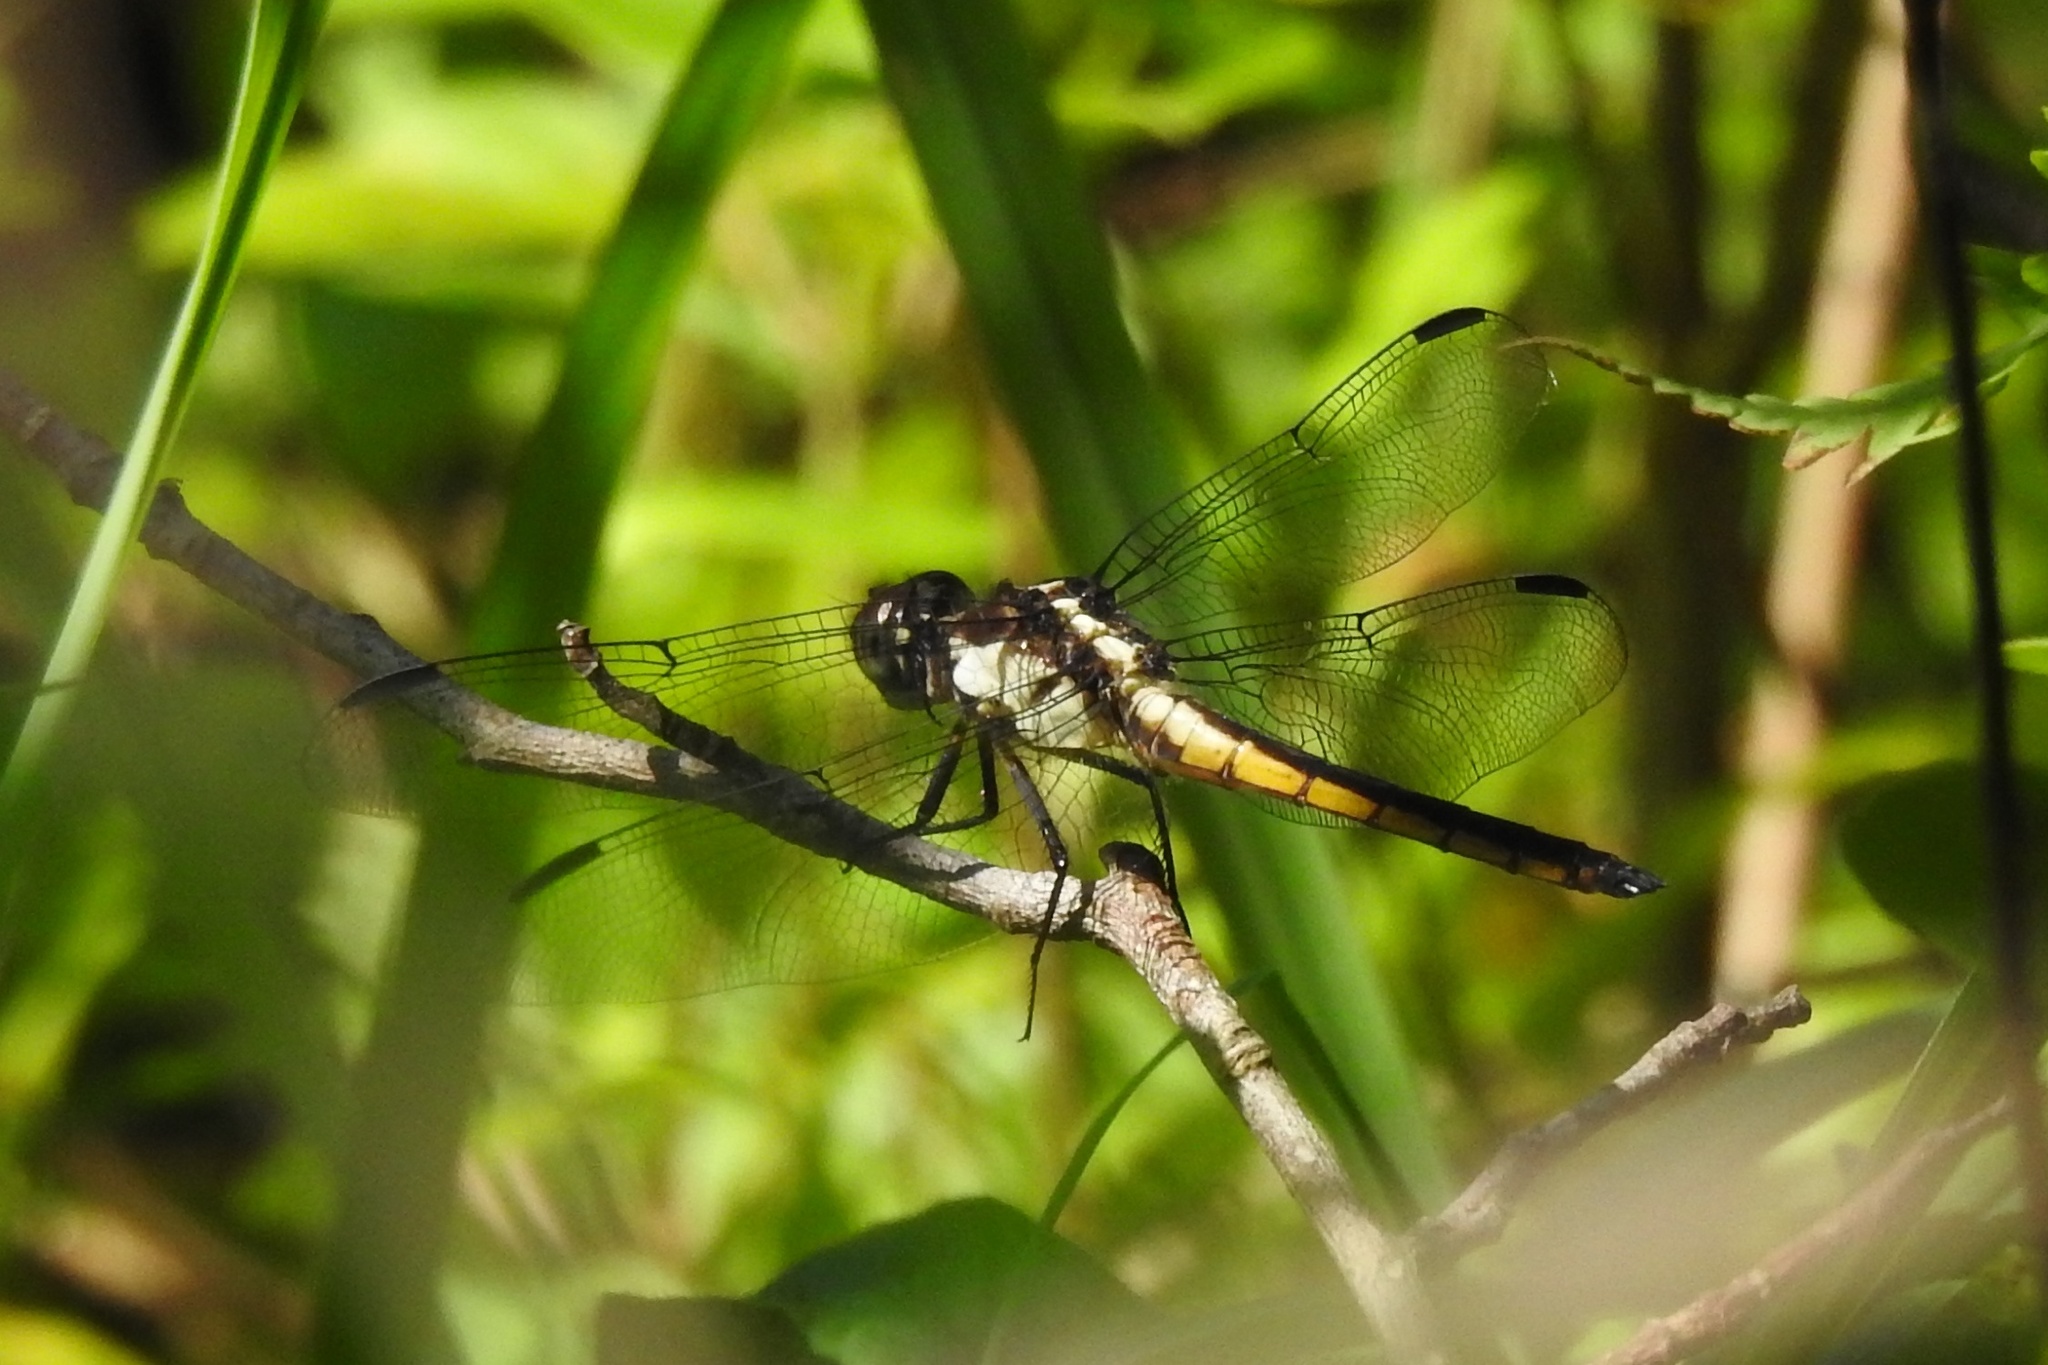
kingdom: Animalia
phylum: Arthropoda
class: Insecta
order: Odonata
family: Libellulidae
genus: Libellula
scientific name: Libellula incesta
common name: Slaty skimmer
